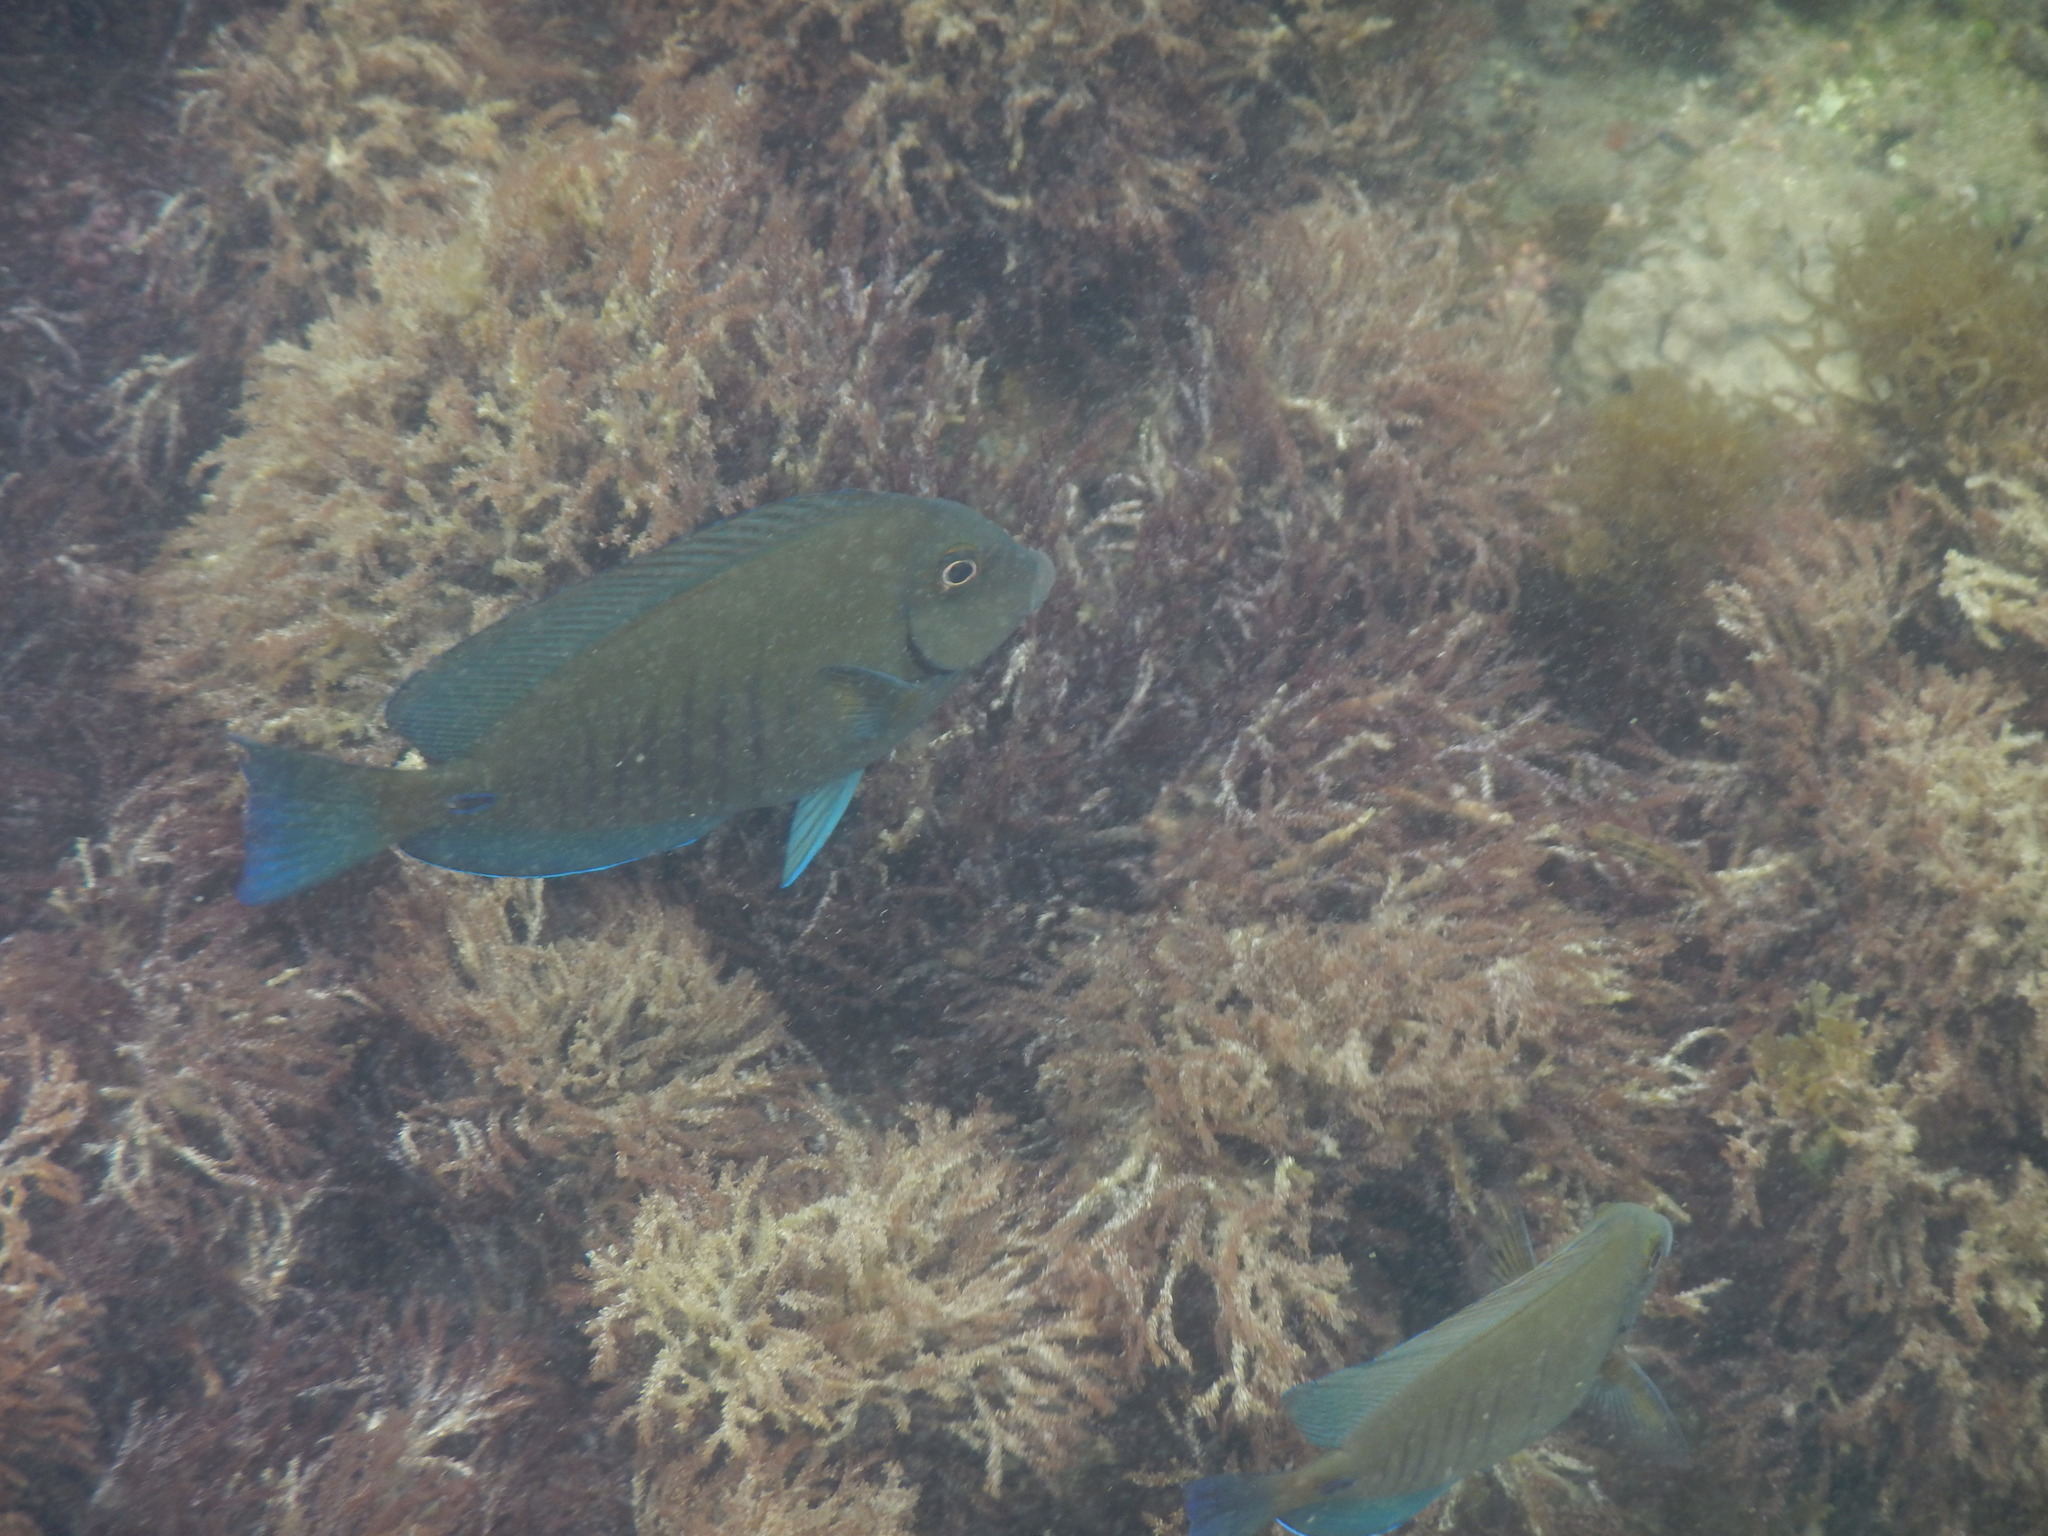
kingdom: Animalia
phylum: Chordata
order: Perciformes
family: Acanthuridae
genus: Acanthurus
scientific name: Acanthurus chirurgus
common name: Doctorfish
